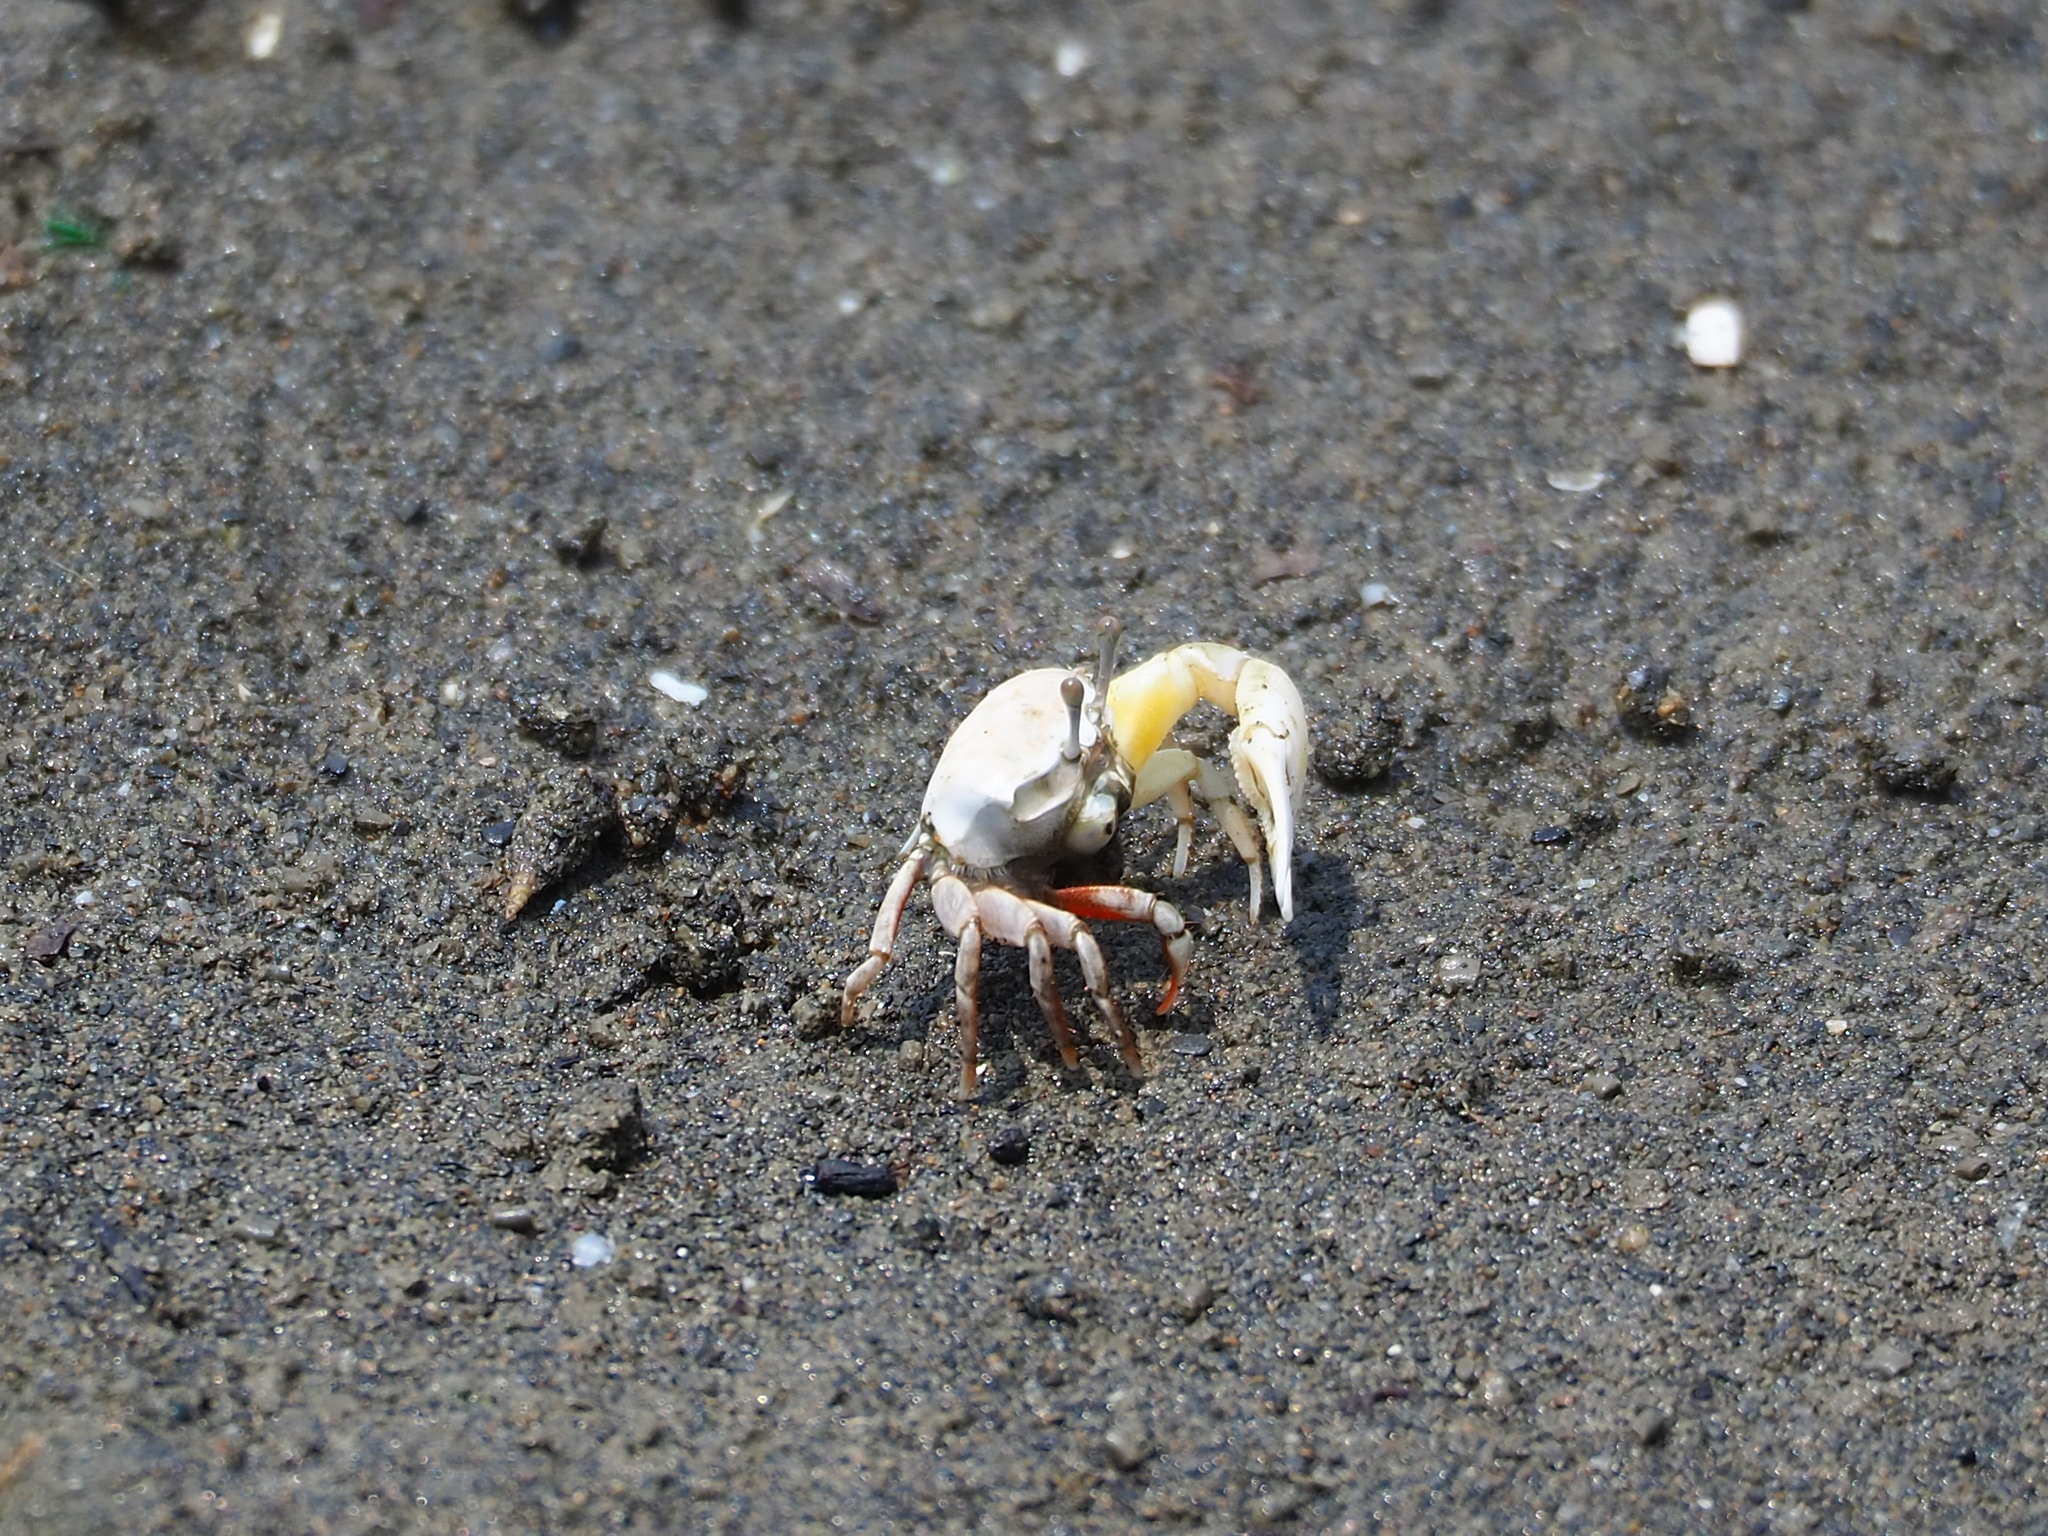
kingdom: Animalia
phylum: Arthropoda
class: Malacostraca
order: Decapoda
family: Ocypodidae
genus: Austruca
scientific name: Austruca lactea
